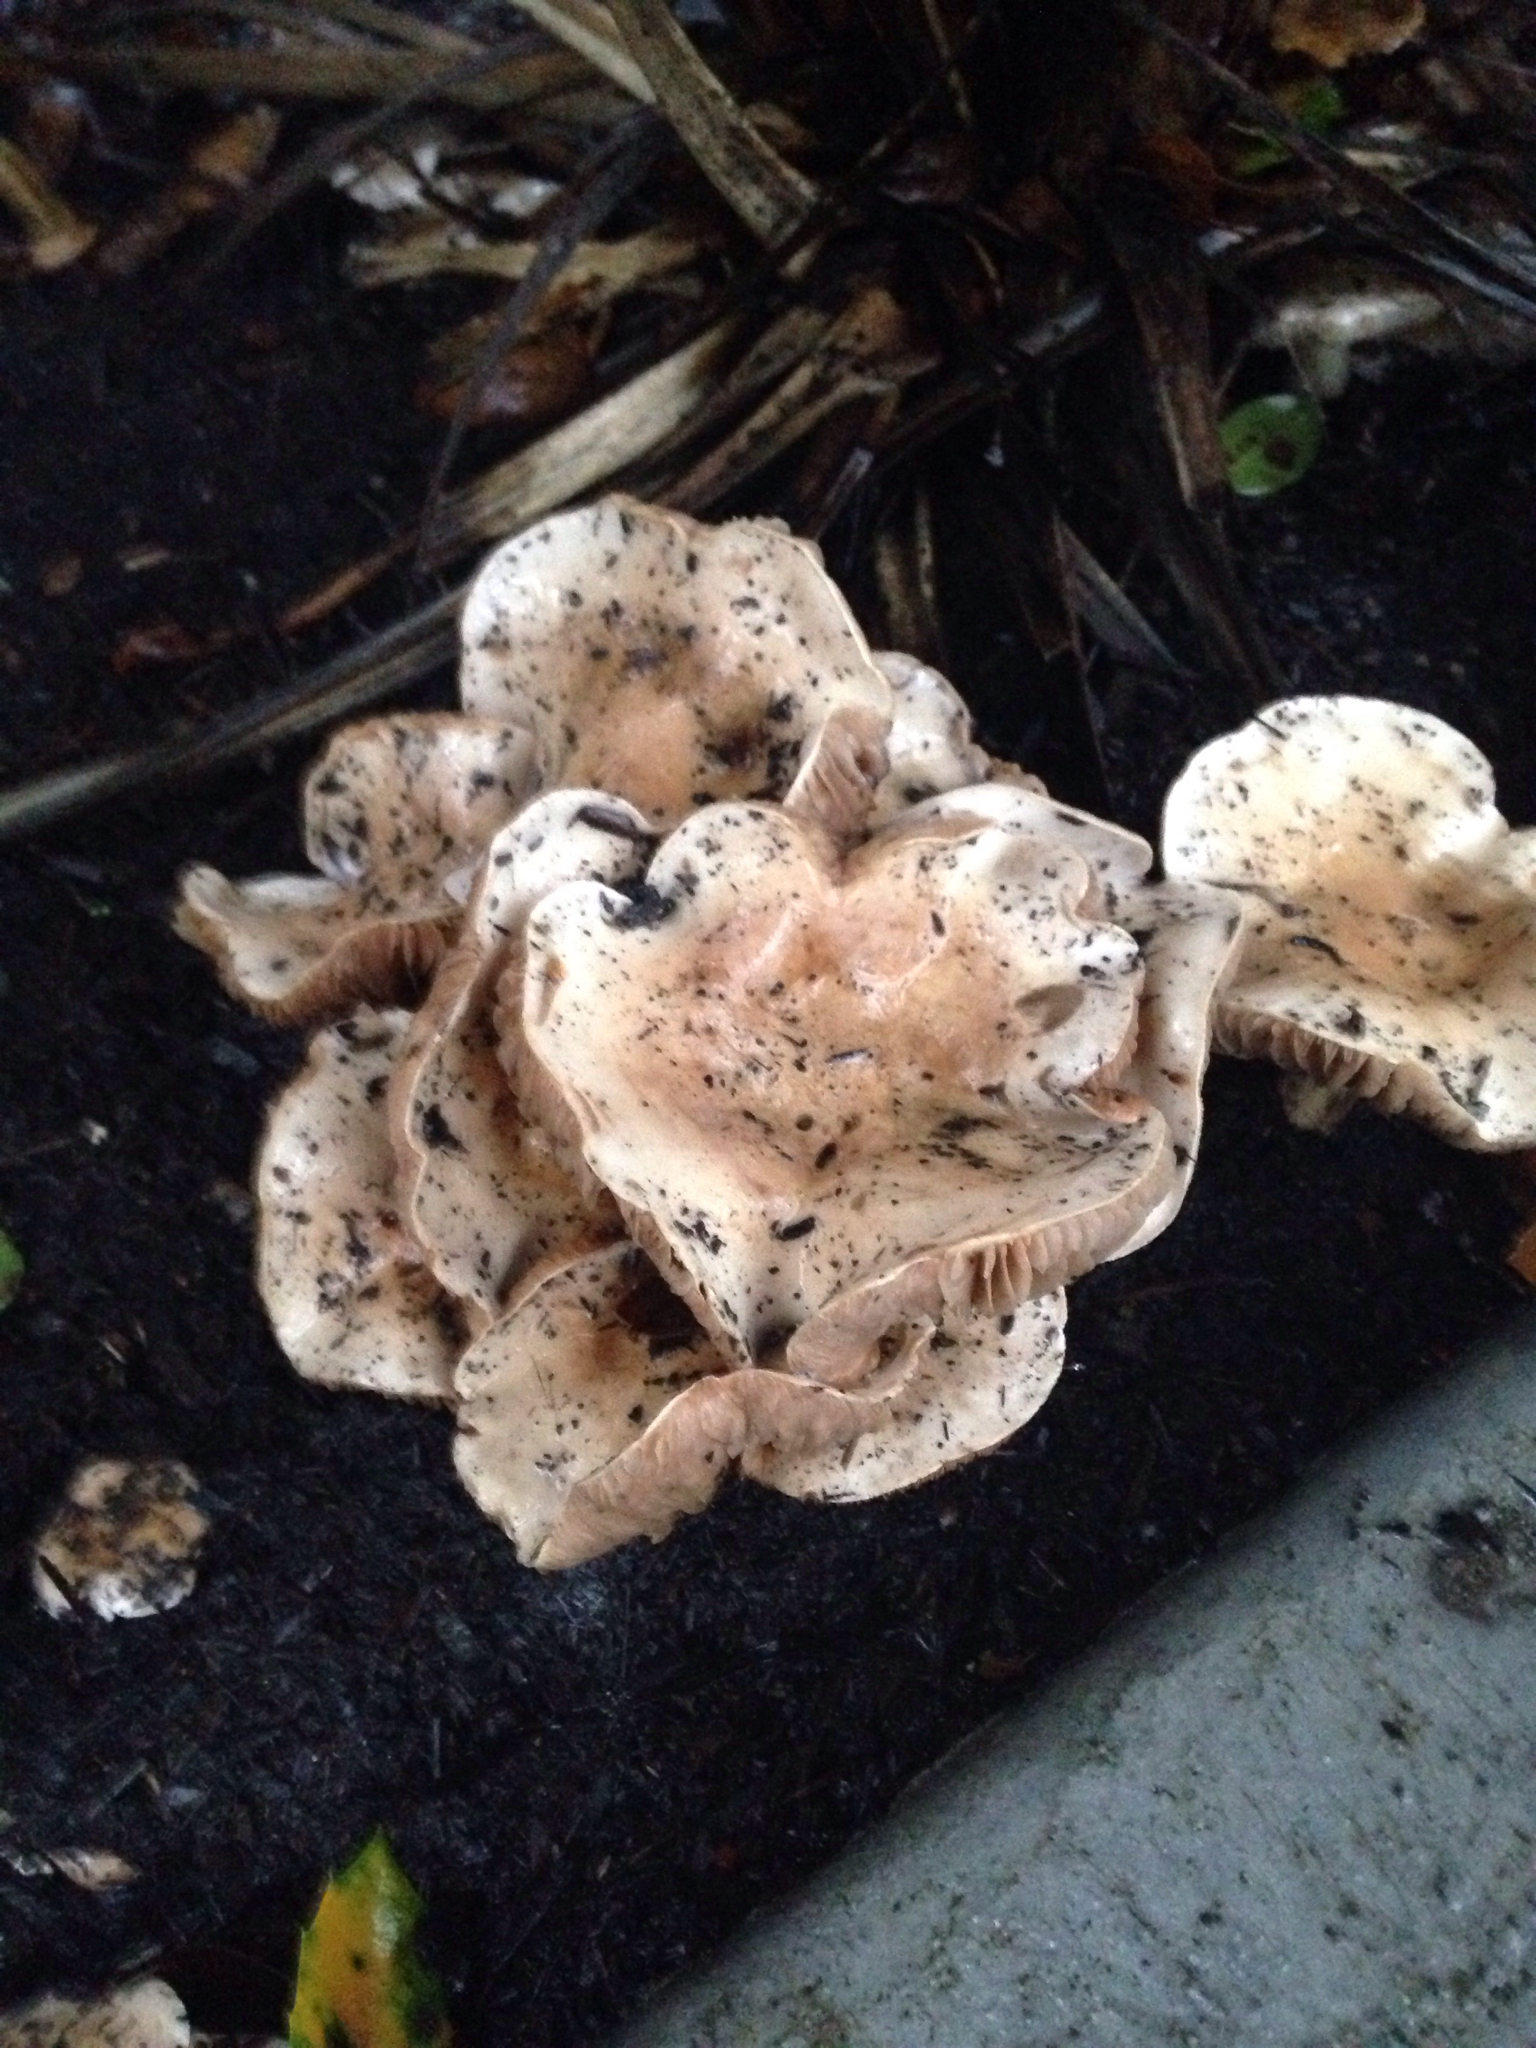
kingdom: Fungi
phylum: Basidiomycota
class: Agaricomycetes
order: Agaricales
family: Hymenogastraceae
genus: Hebeloma
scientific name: Hebeloma crustuliniforme
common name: Poison pie
